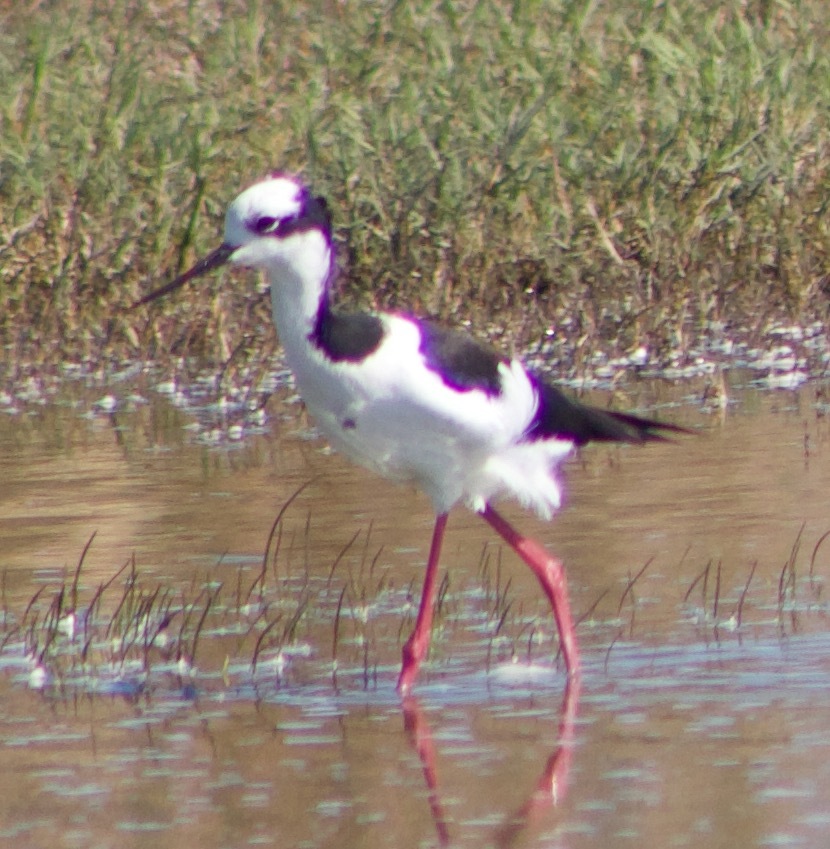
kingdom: Animalia
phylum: Chordata
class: Aves
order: Charadriiformes
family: Recurvirostridae
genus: Himantopus
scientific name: Himantopus mexicanus
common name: Black-necked stilt
